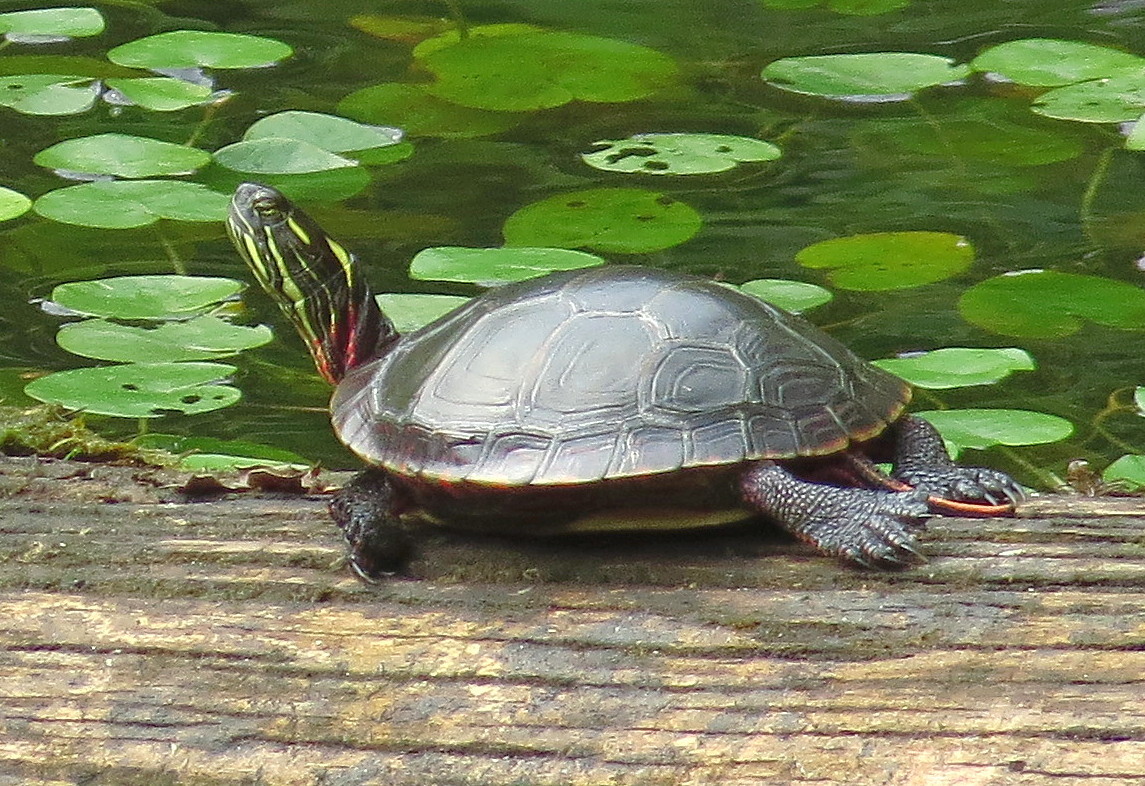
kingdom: Animalia
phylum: Chordata
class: Testudines
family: Emydidae
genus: Chrysemys
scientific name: Chrysemys picta
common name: Painted turtle
